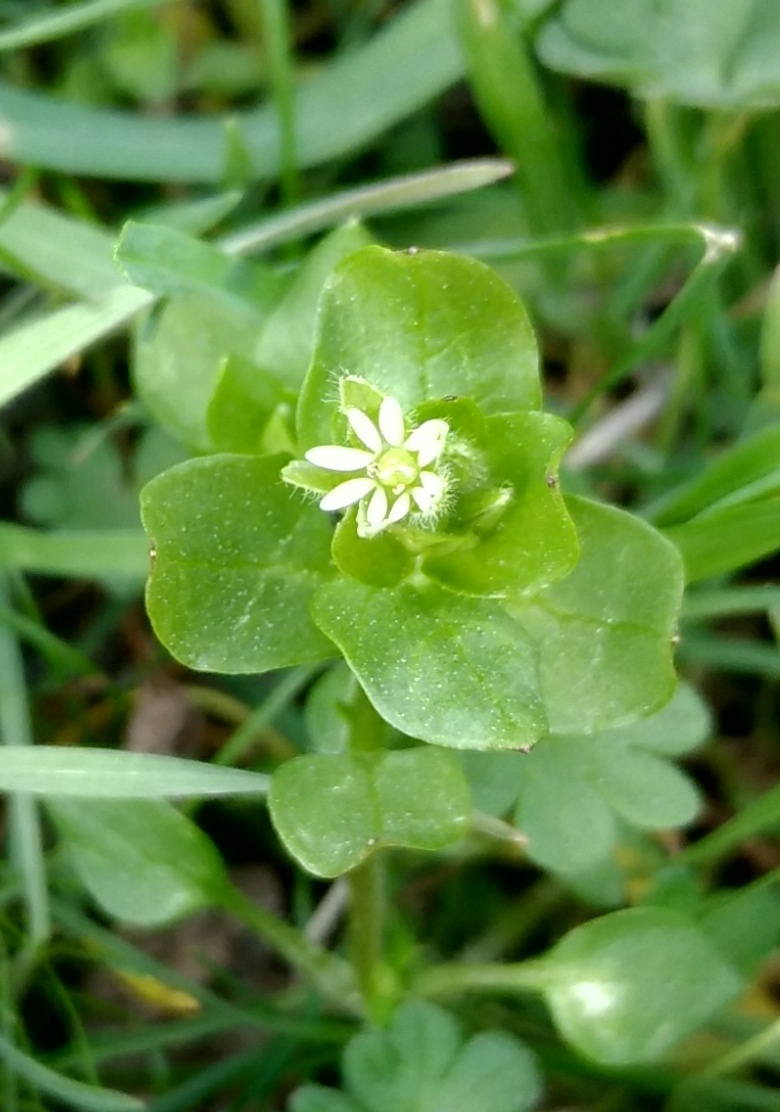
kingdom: Plantae
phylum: Tracheophyta
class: Magnoliopsida
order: Caryophyllales
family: Caryophyllaceae
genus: Stellaria
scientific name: Stellaria media
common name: Common chickweed
